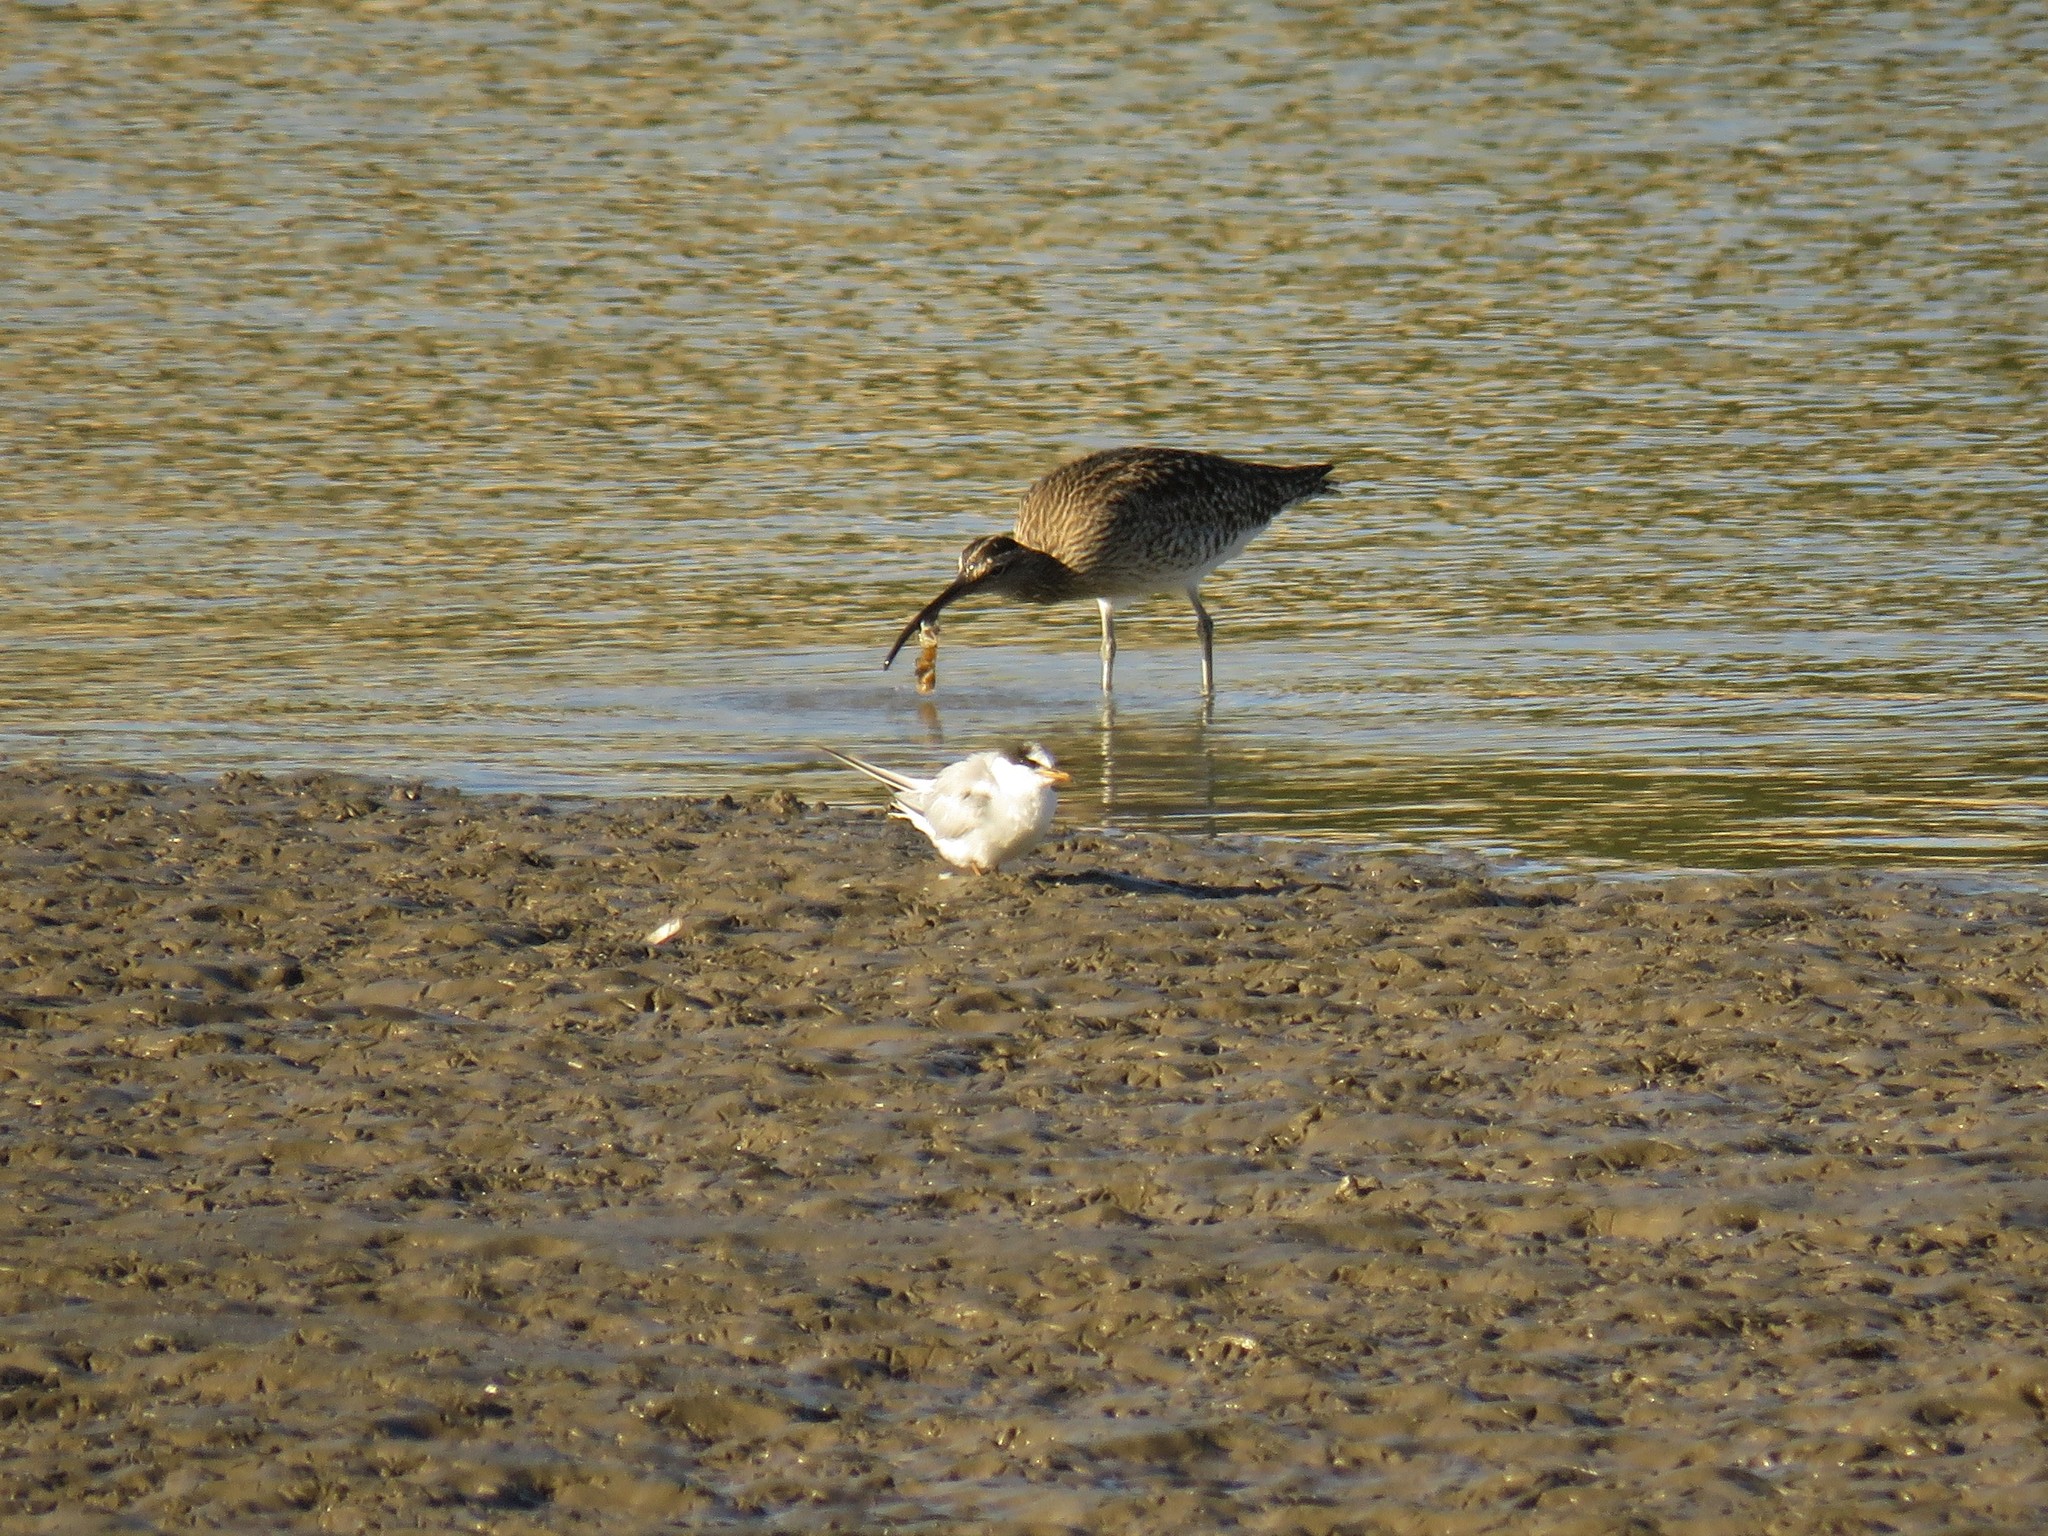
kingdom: Animalia
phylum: Chordata
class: Aves
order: Charadriiformes
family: Laridae
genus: Sternula
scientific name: Sternula albifrons
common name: Little tern
